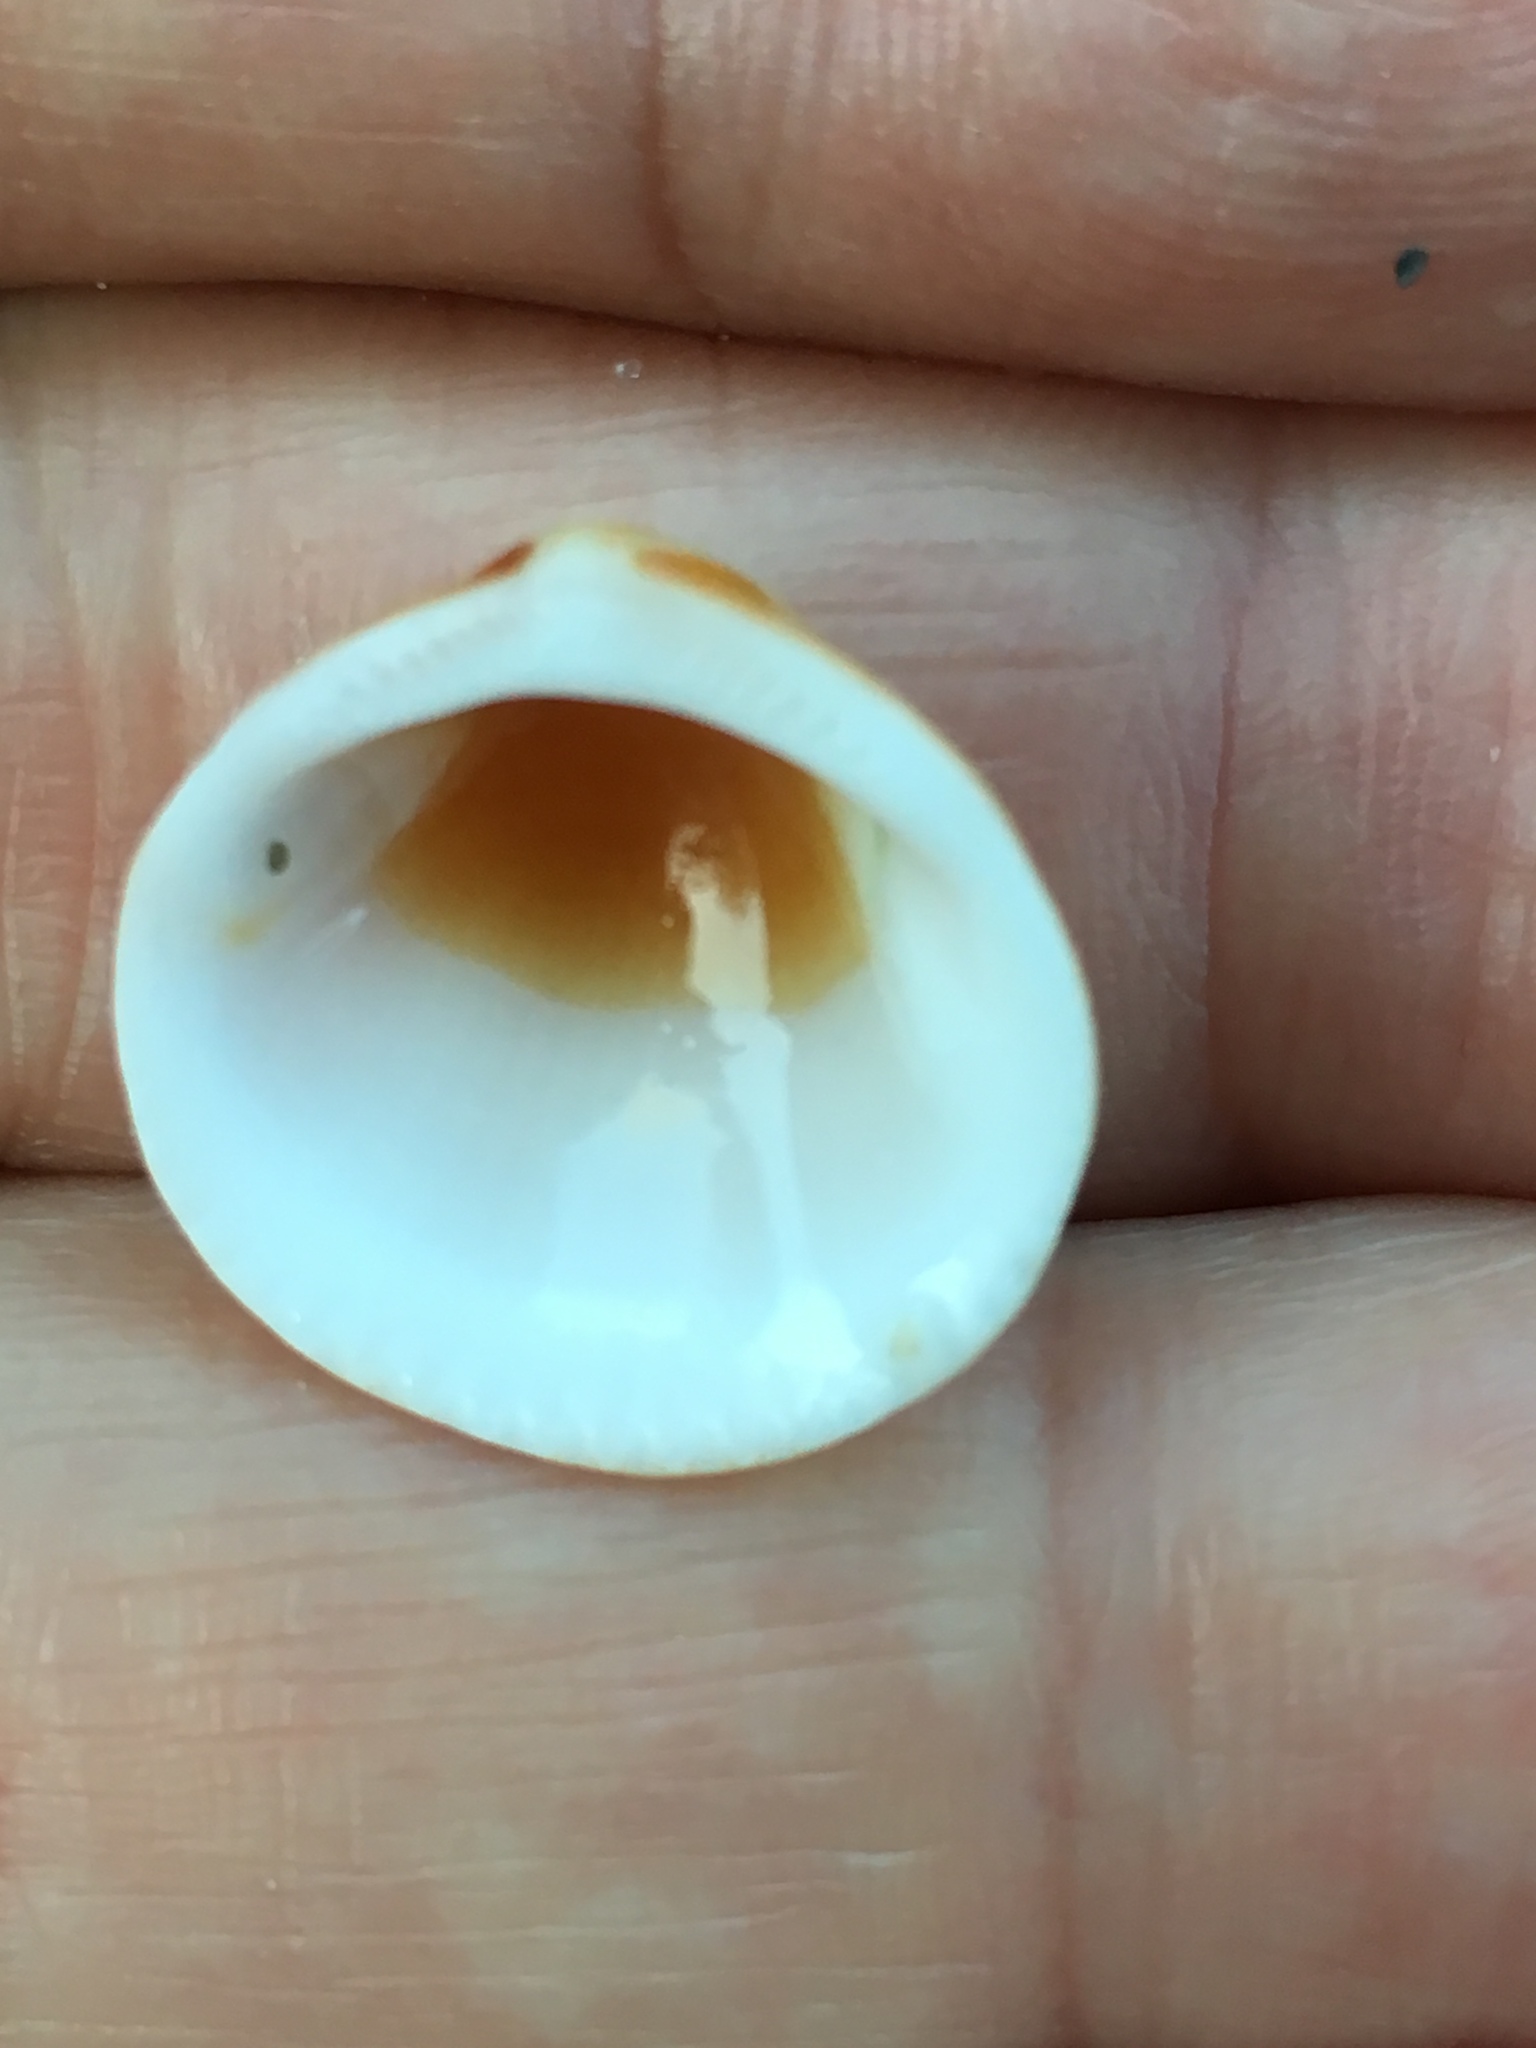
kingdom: Animalia
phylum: Mollusca
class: Bivalvia
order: Arcida
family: Glycymerididae
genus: Glycymeris
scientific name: Glycymeris spectralis
